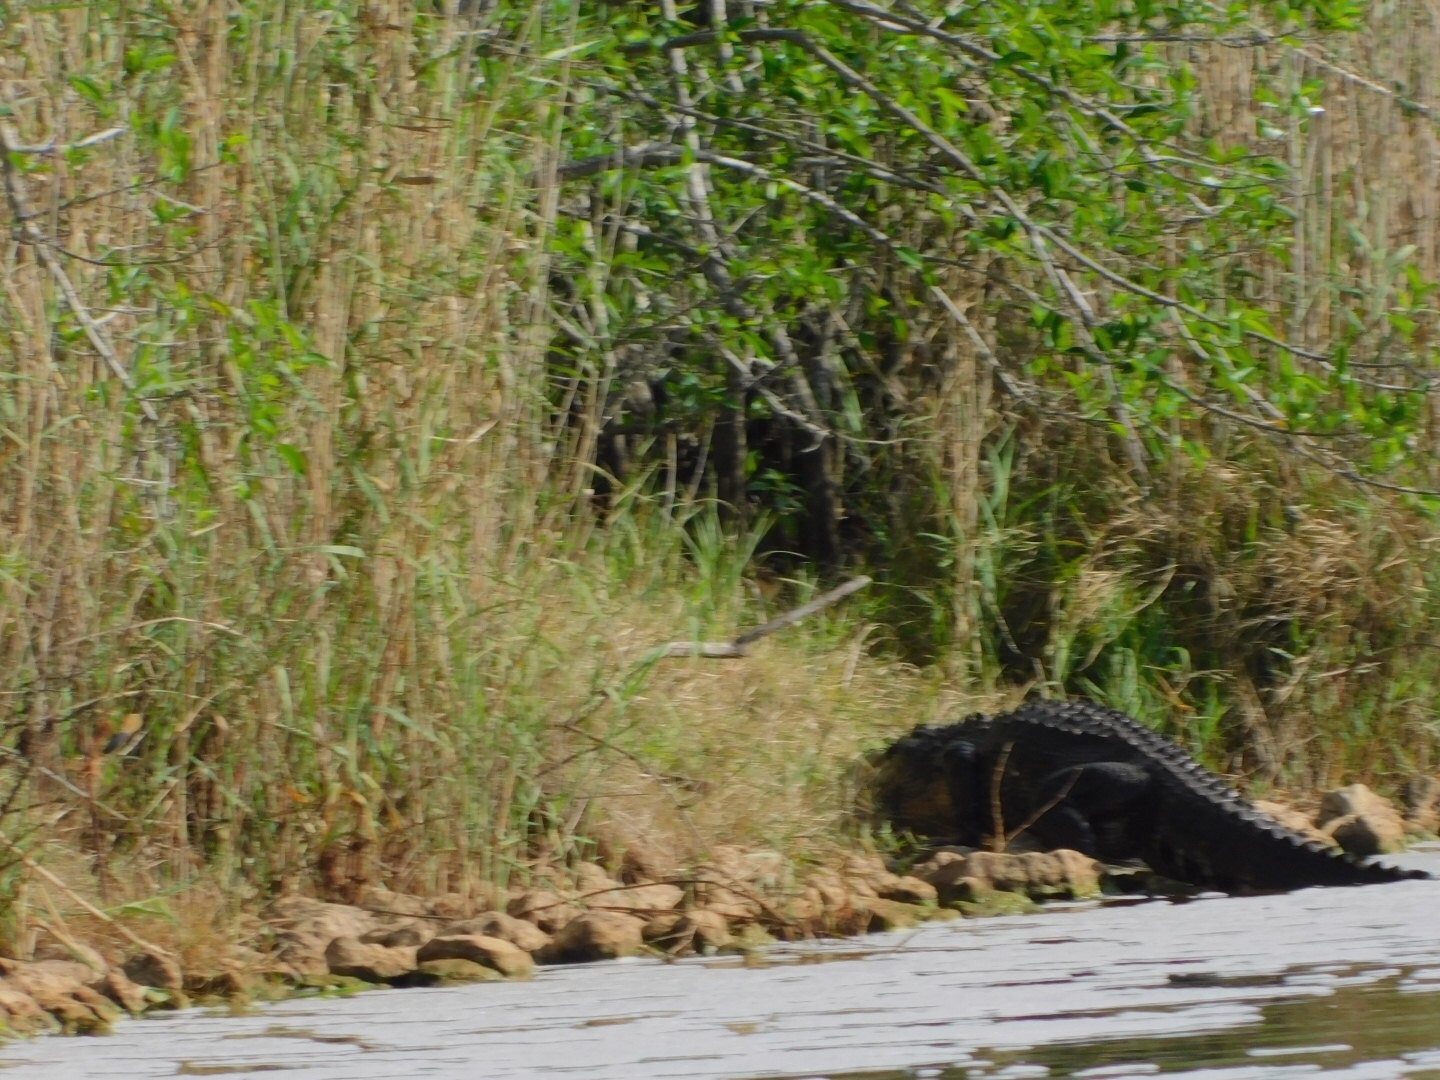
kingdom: Animalia
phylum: Chordata
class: Crocodylia
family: Alligatoridae
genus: Alligator
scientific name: Alligator mississippiensis
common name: American alligator
